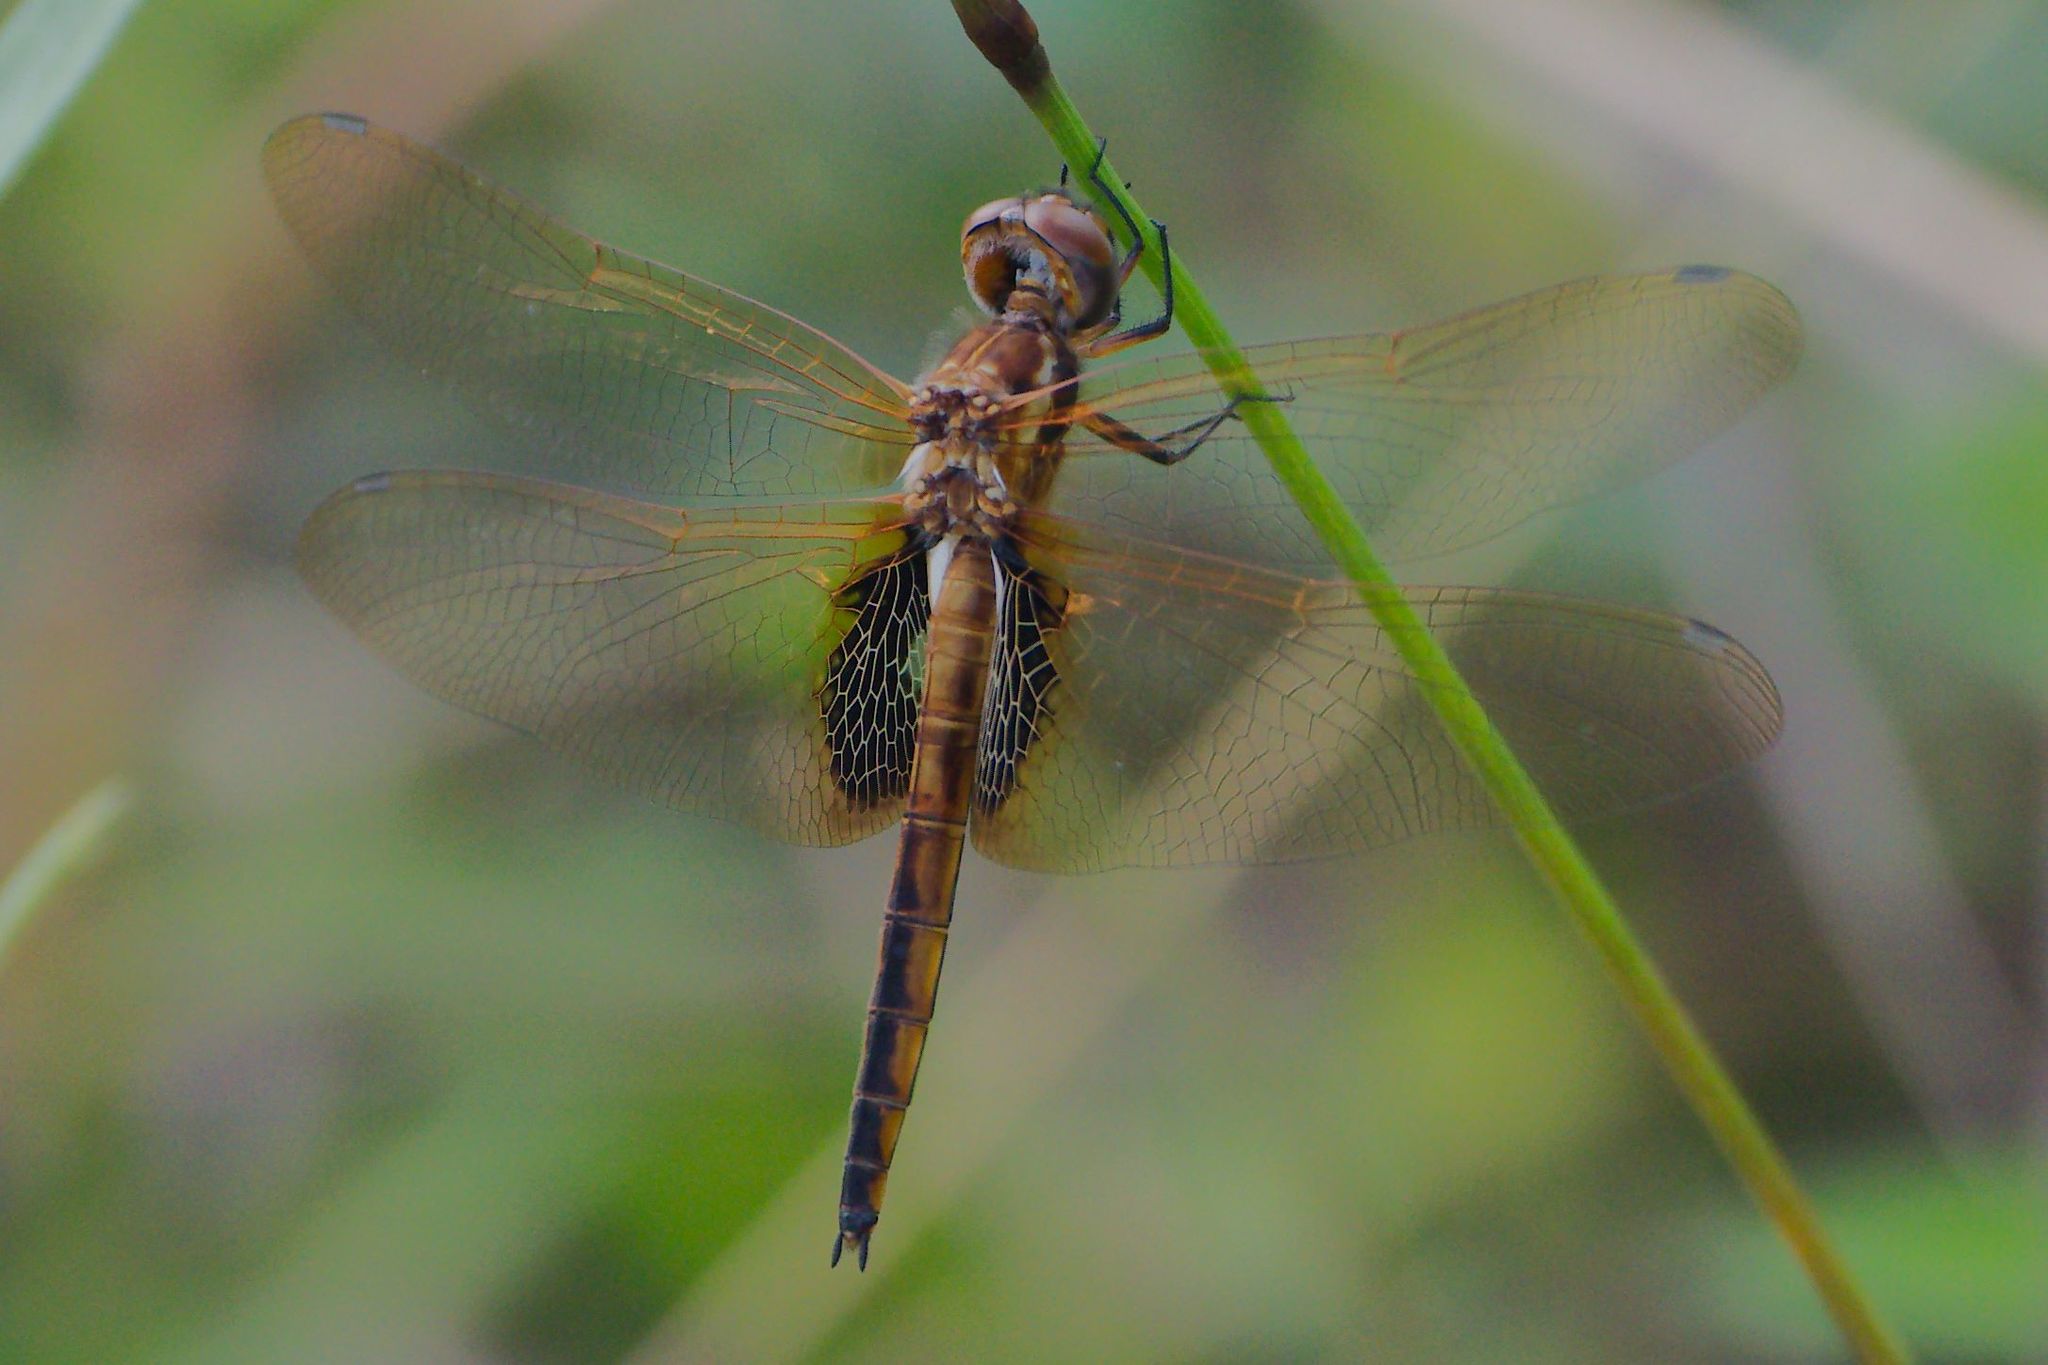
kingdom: Animalia
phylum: Arthropoda
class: Insecta
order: Odonata
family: Libellulidae
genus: Miathyria
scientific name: Miathyria marcella
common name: Hyacinth glider
